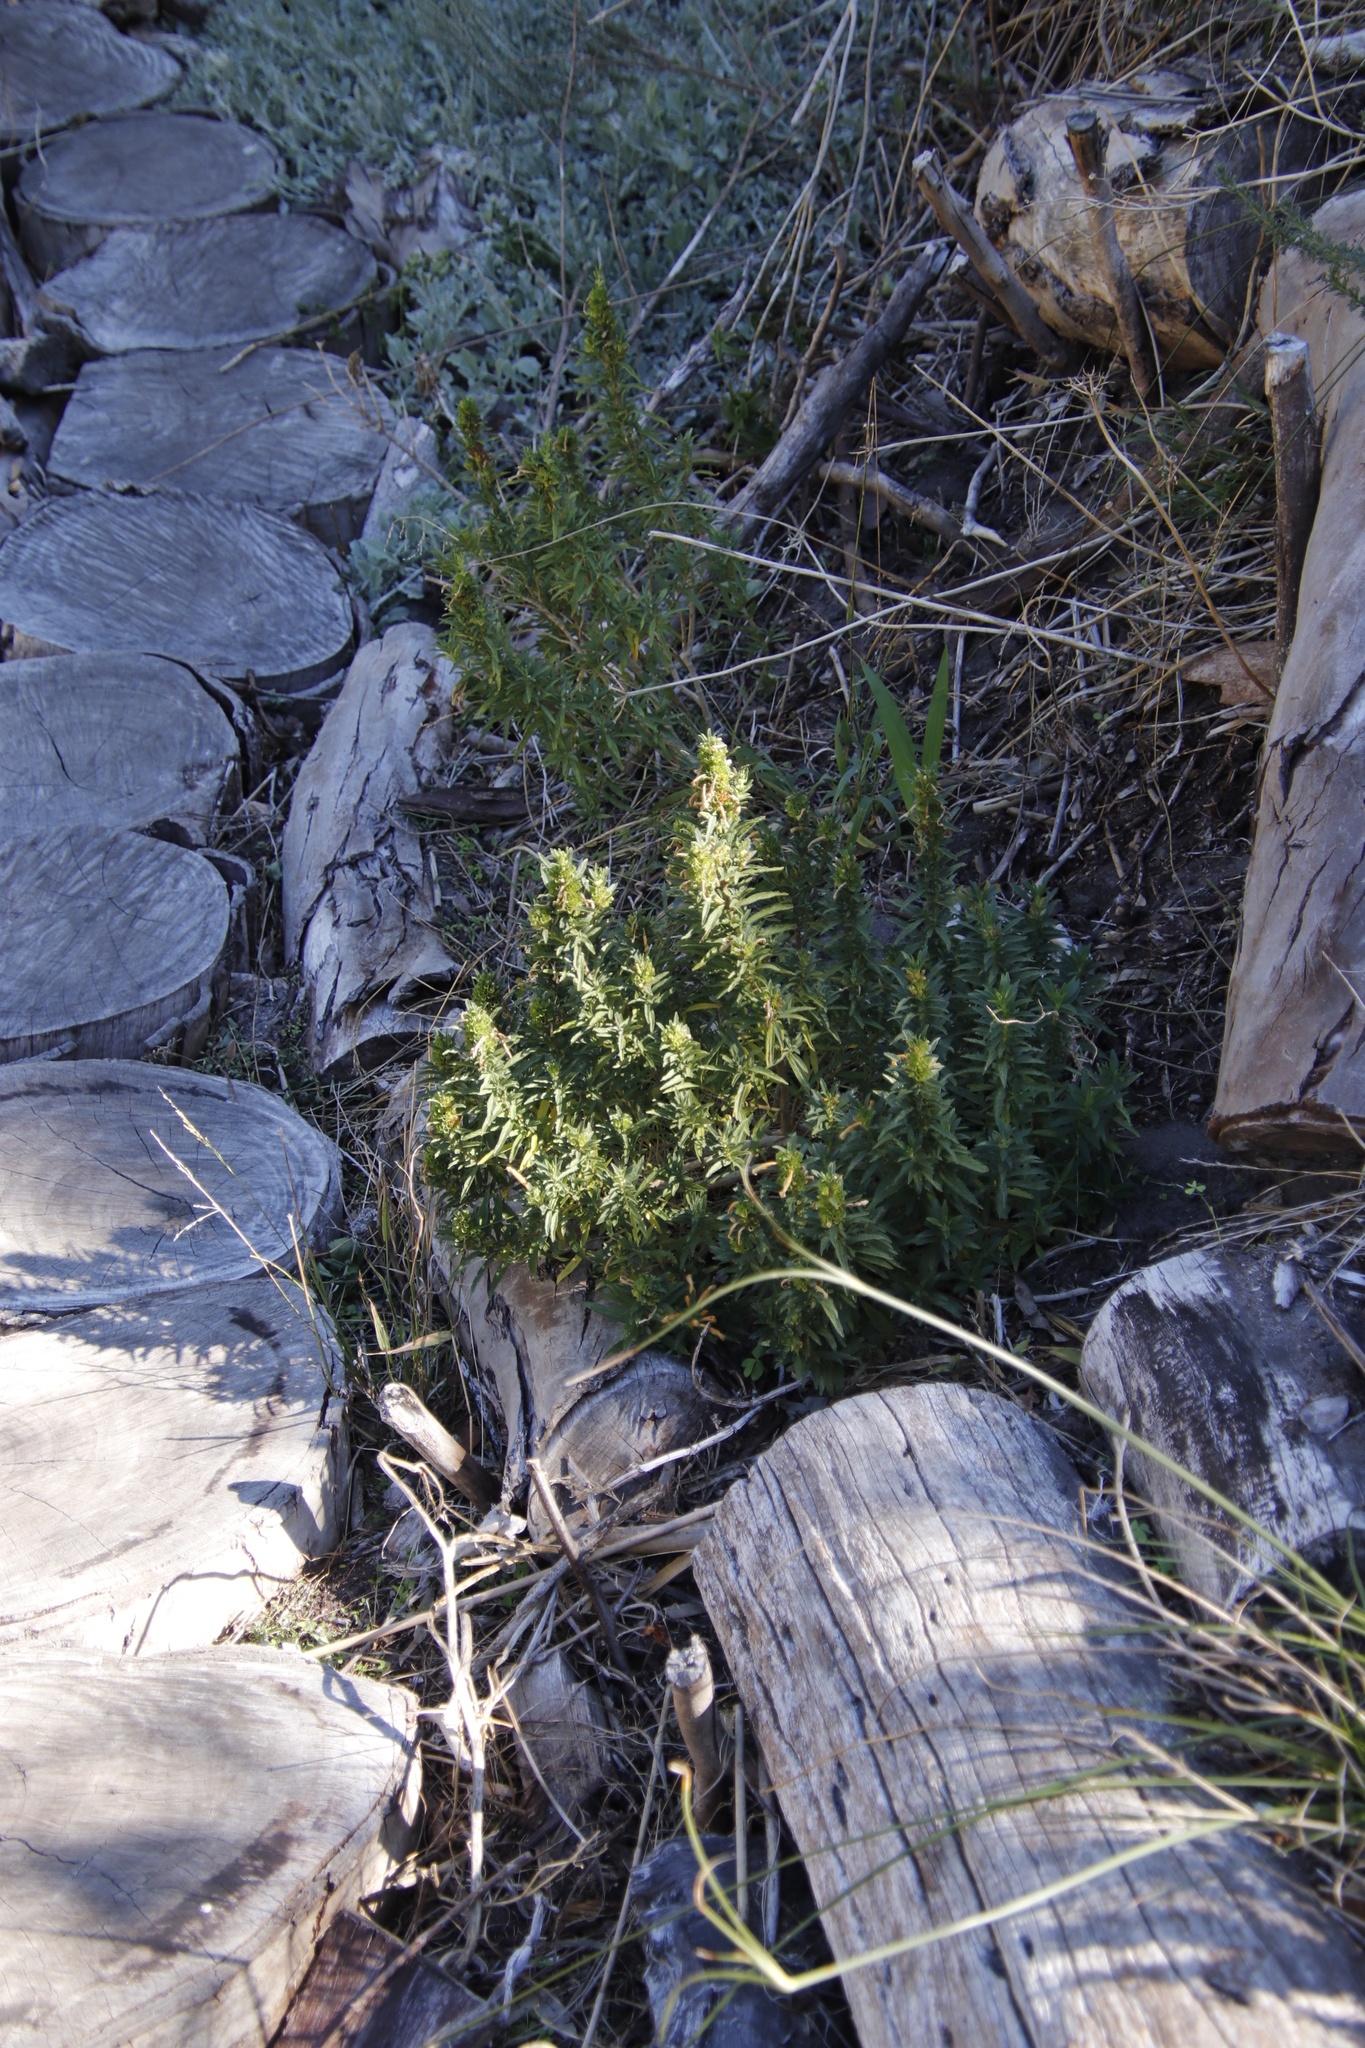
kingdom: Plantae
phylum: Tracheophyta
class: Magnoliopsida
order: Lamiales
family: Lamiaceae
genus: Leonotis
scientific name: Leonotis leonurus
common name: Lion's ear
